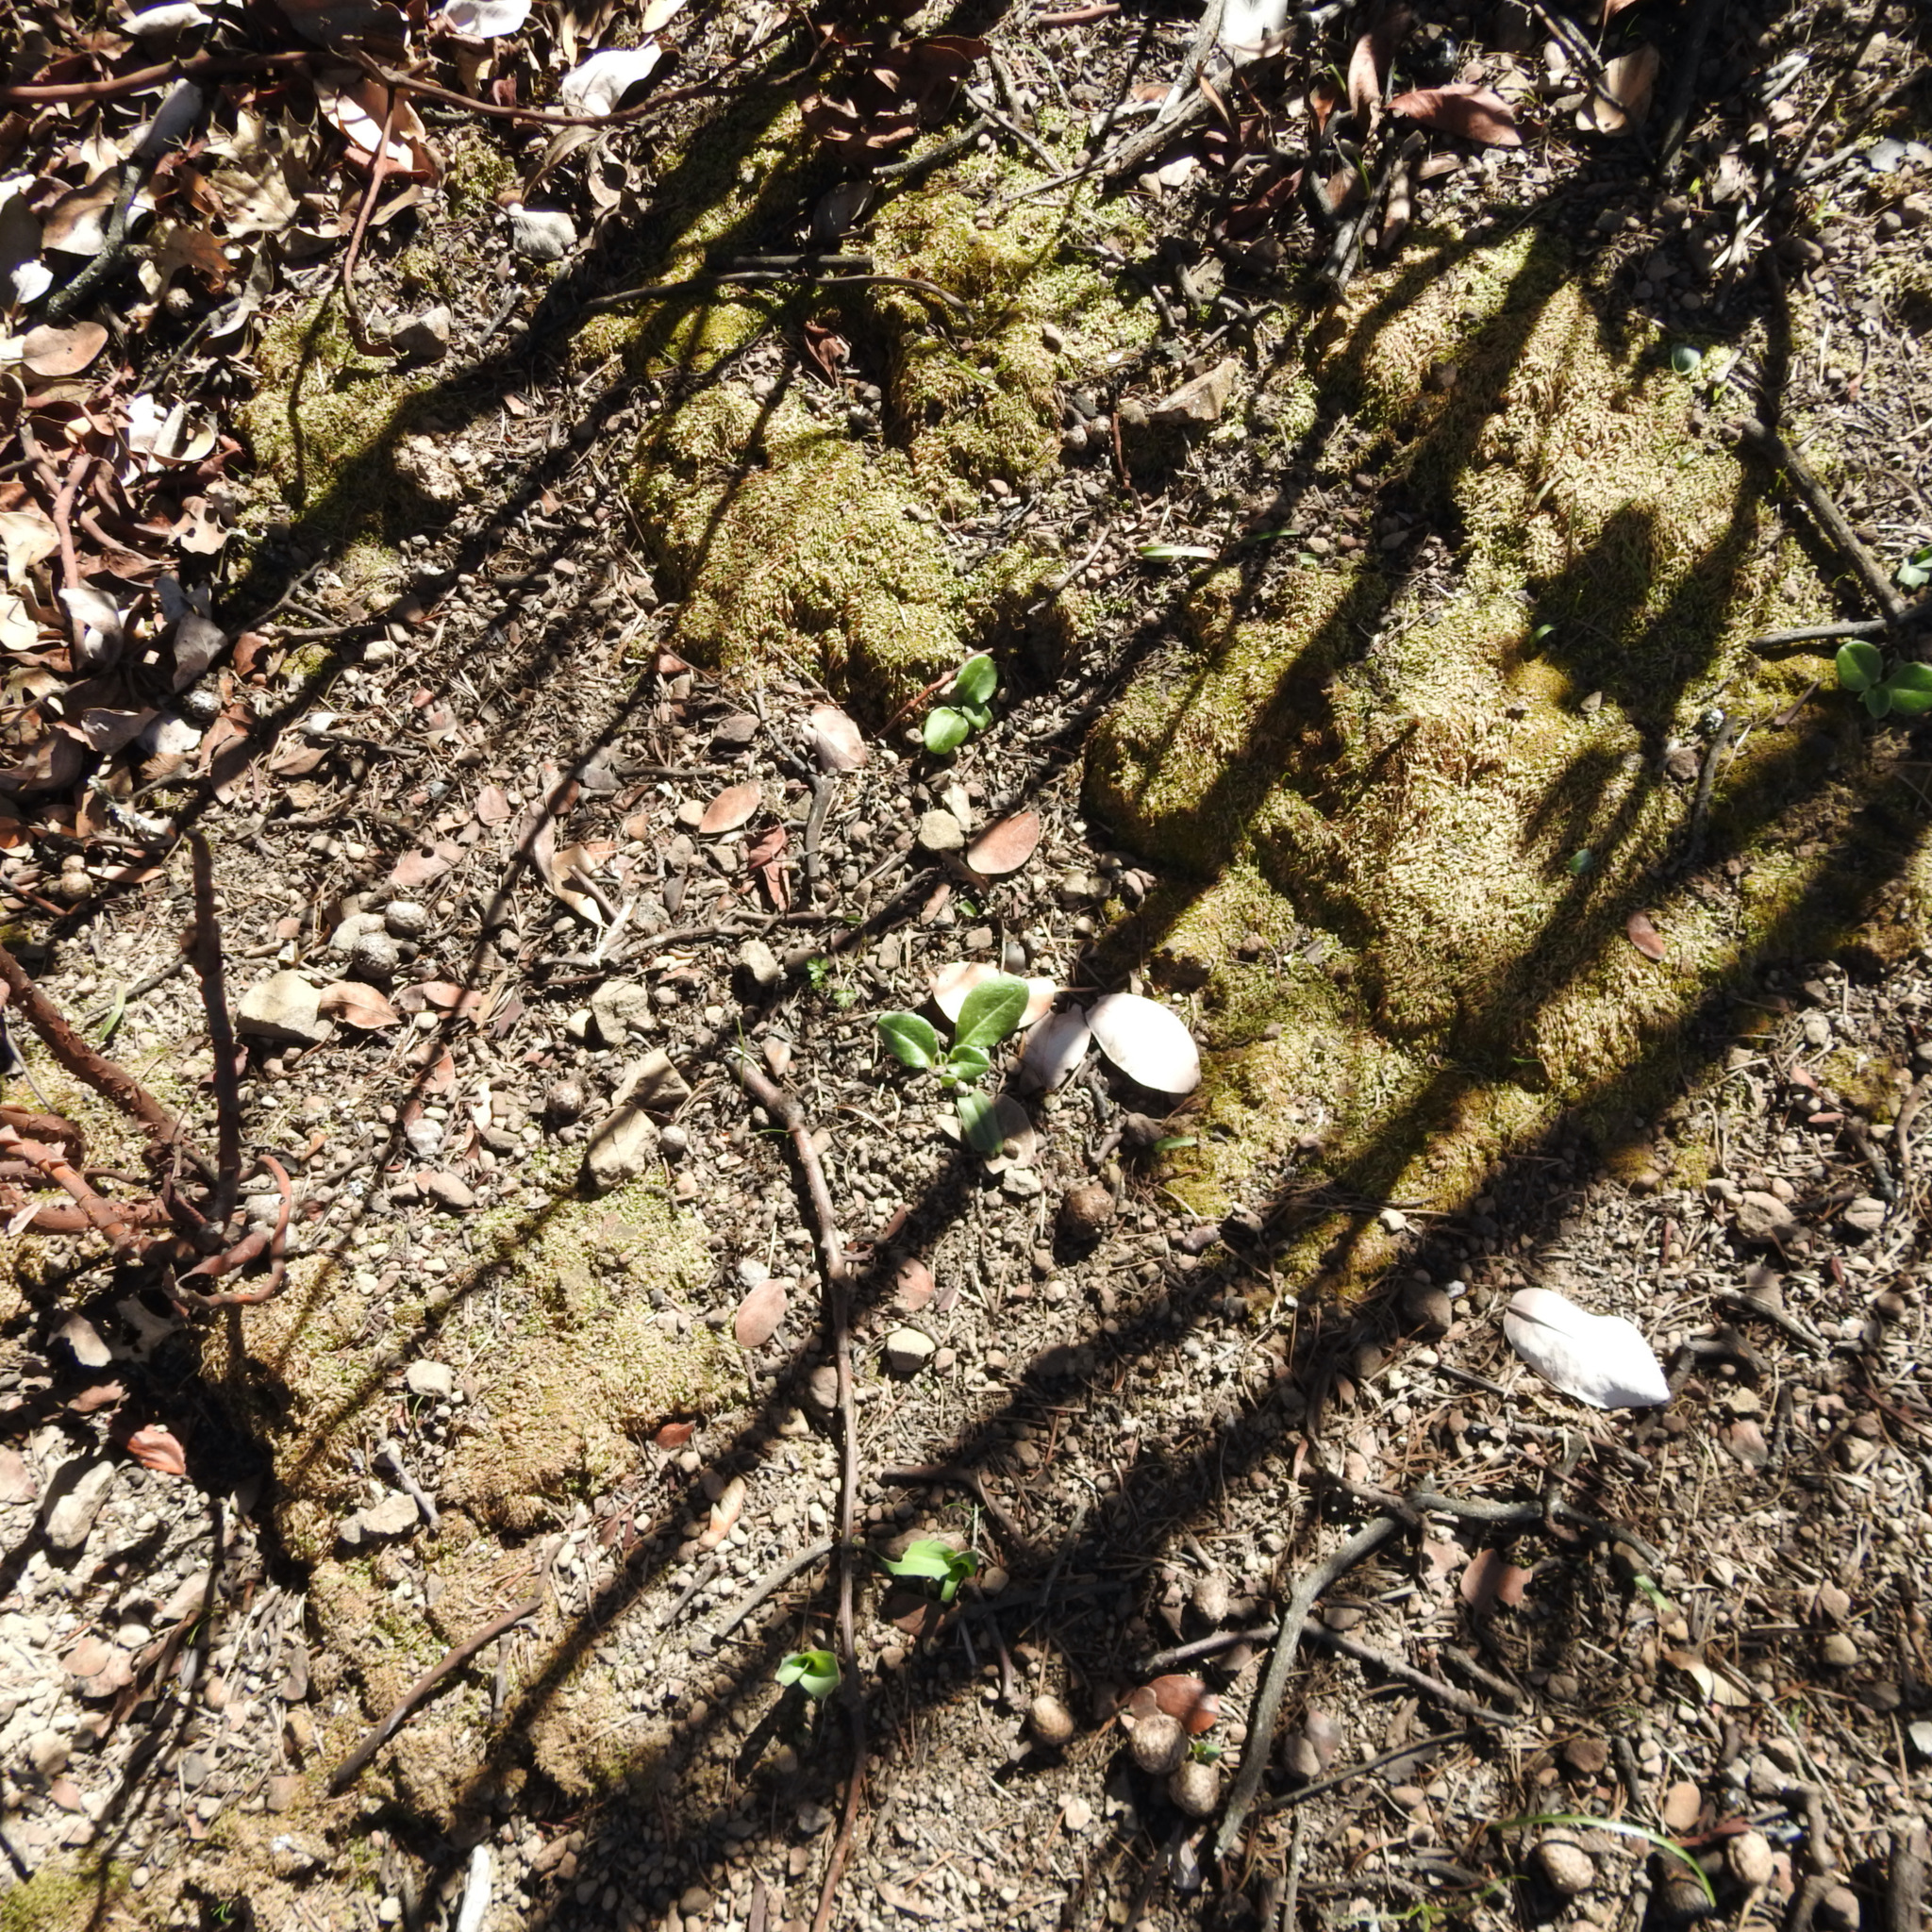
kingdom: Plantae
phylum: Tracheophyta
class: Magnoliopsida
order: Ericales
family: Ericaceae
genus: Arbutus
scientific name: Arbutus menziesii
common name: Pacific madrone
